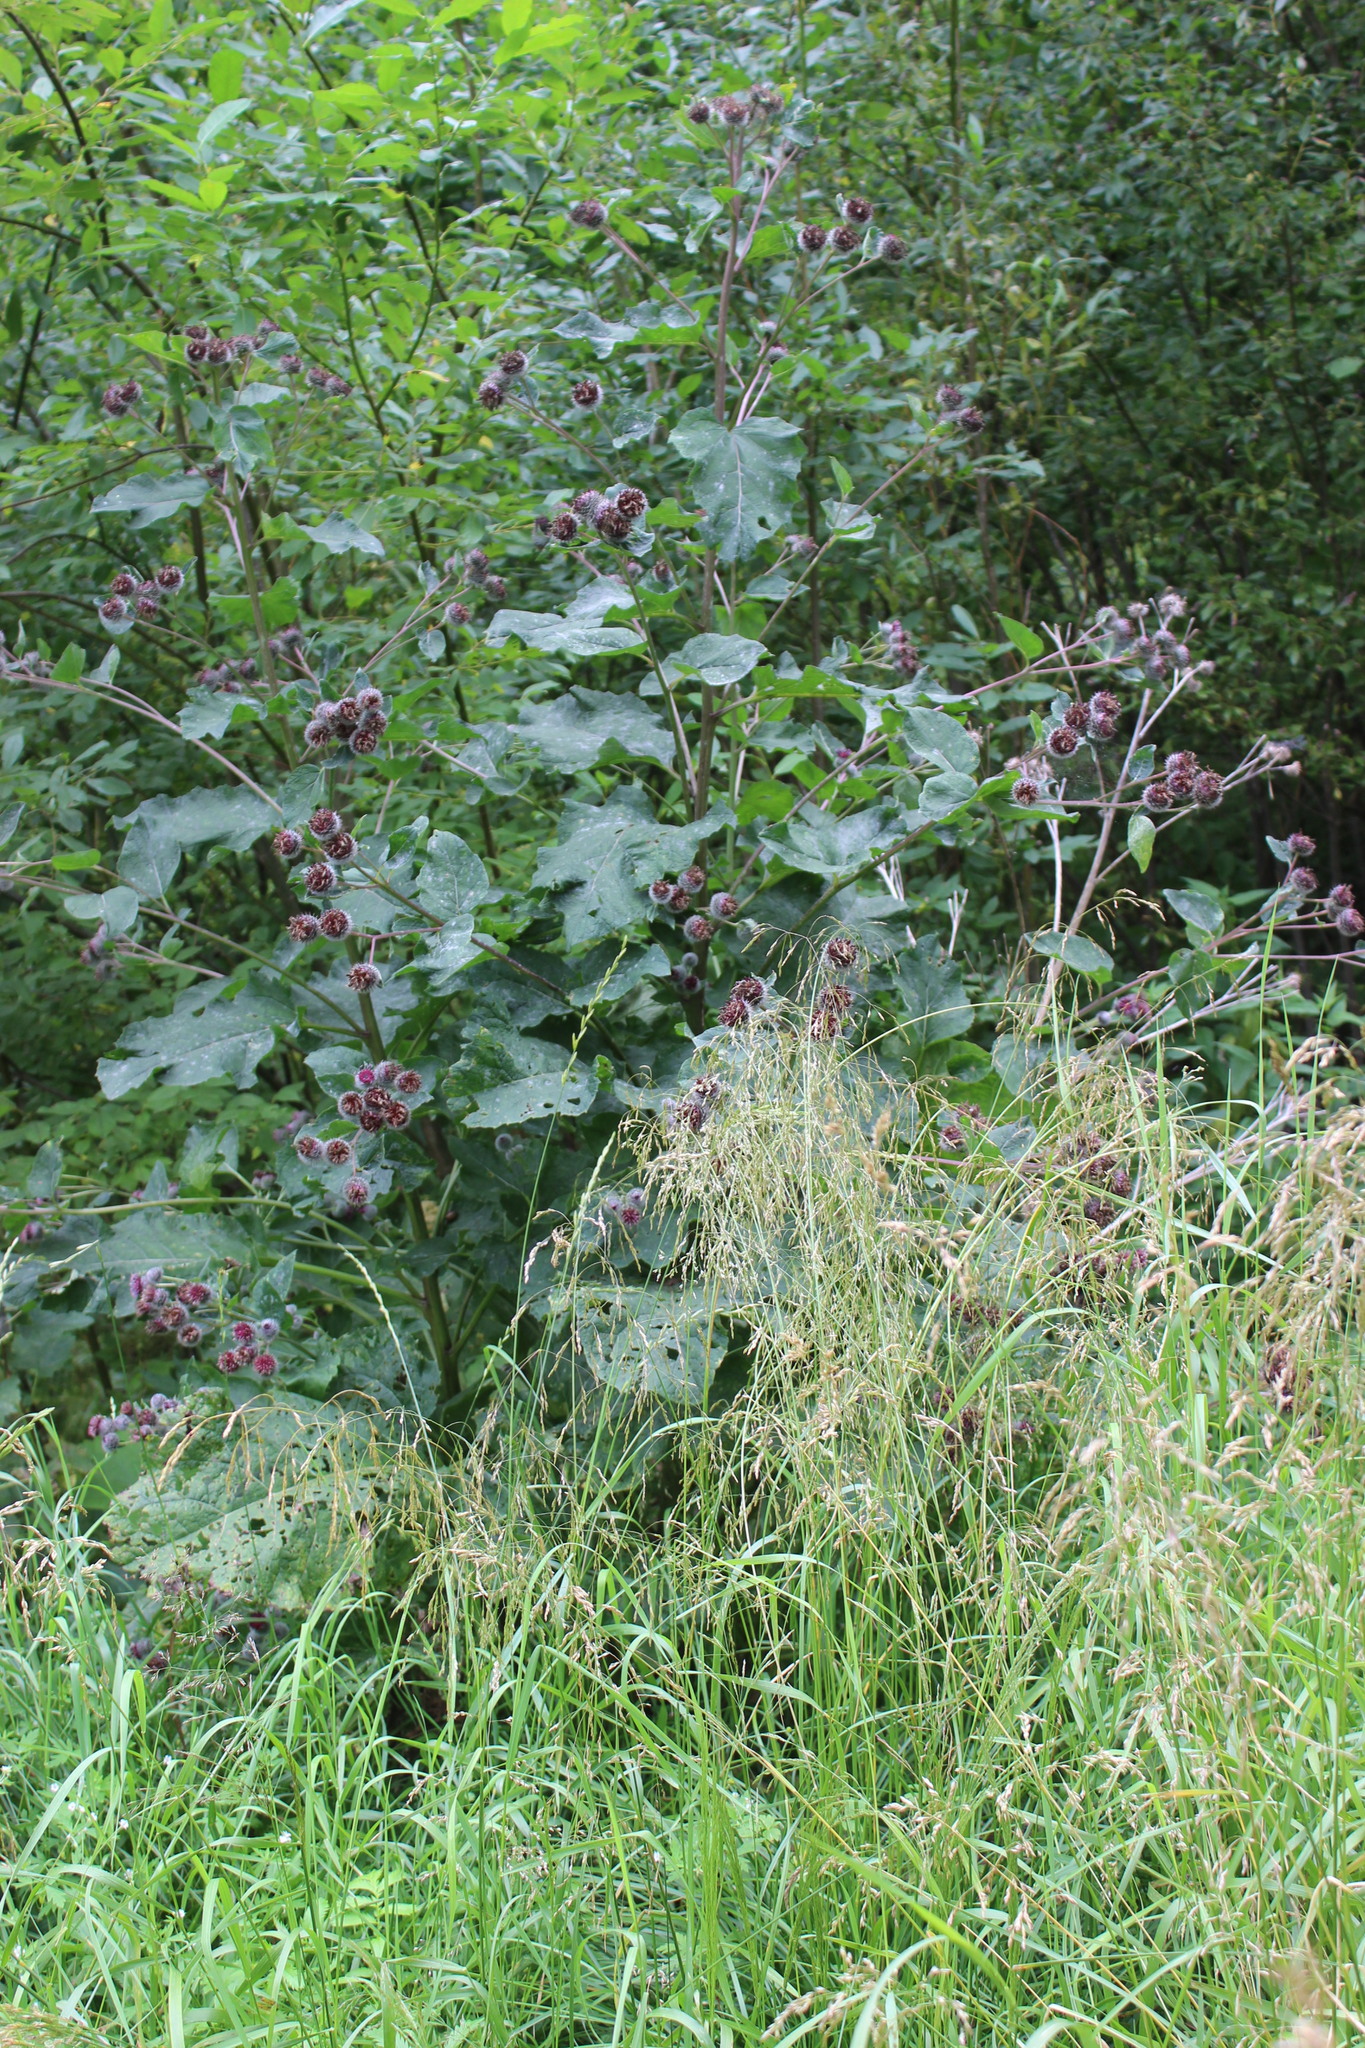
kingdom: Plantae
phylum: Tracheophyta
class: Magnoliopsida
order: Asterales
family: Asteraceae
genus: Arctium
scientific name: Arctium tomentosum
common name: Woolly burdock
